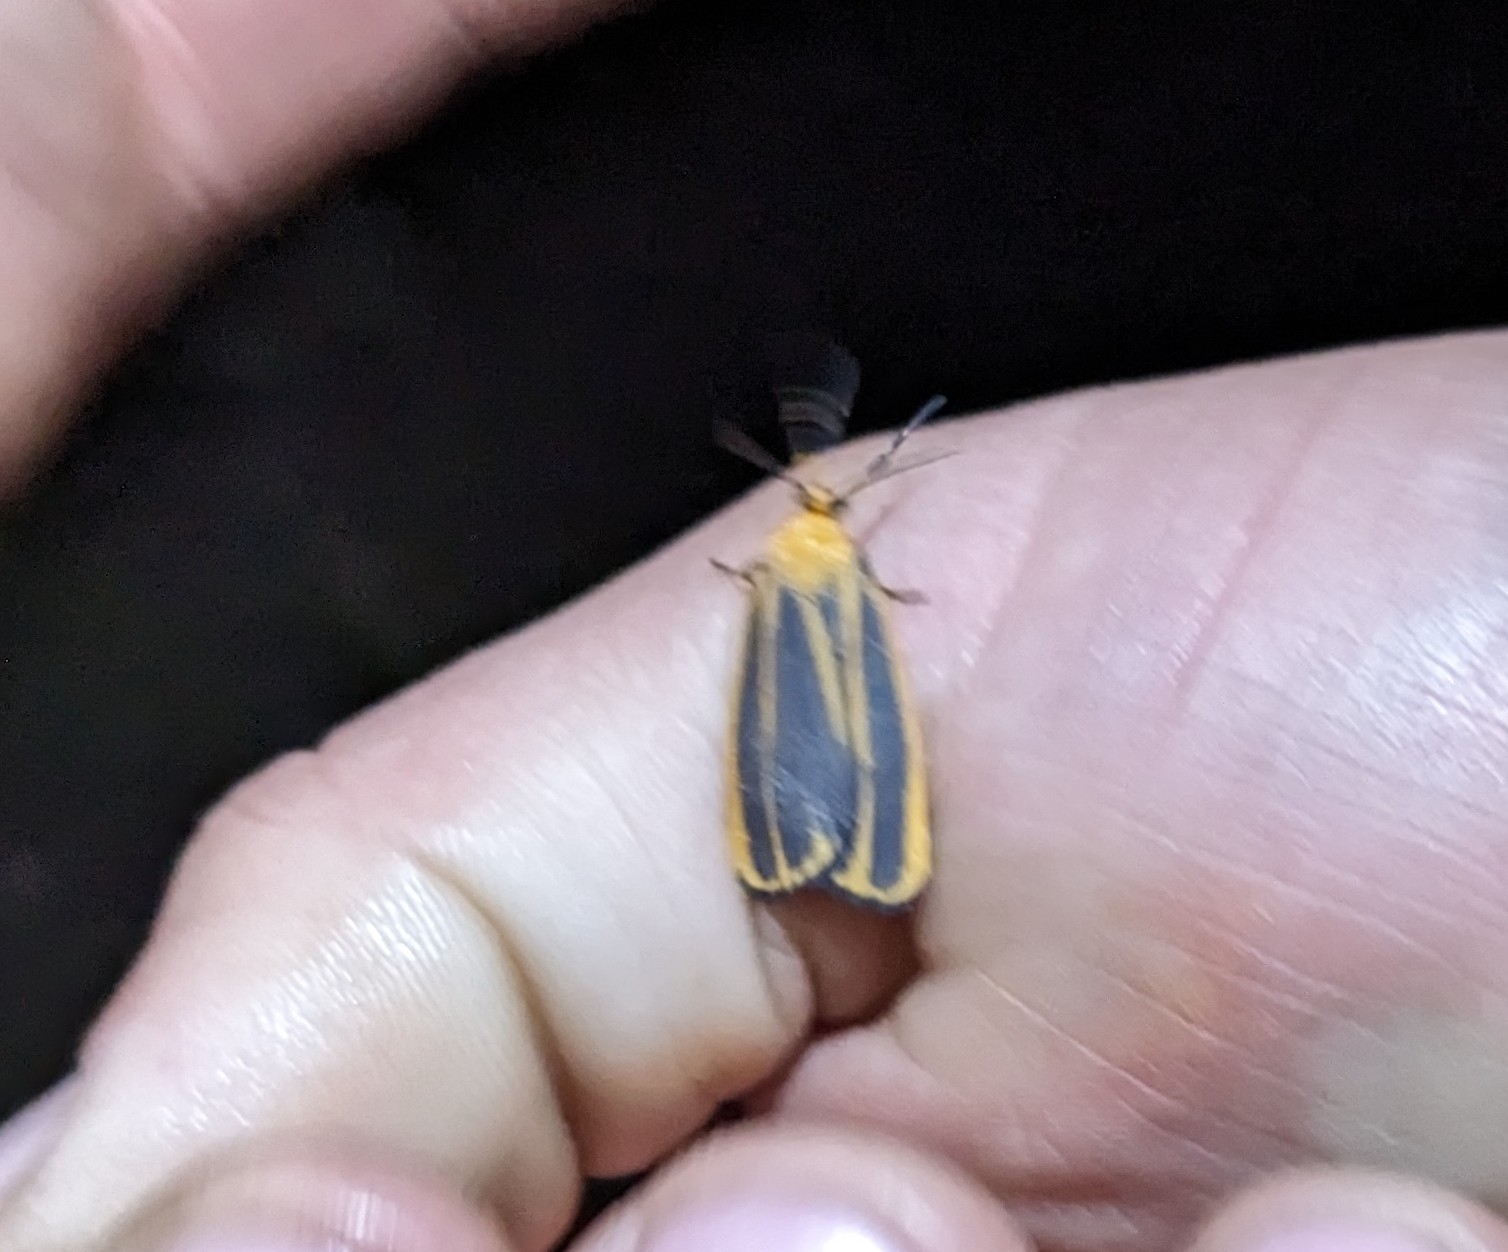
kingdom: Animalia
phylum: Arthropoda
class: Insecta
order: Lepidoptera
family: Erebidae
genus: Hypoprepia
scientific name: Hypoprepia cadaverosa
